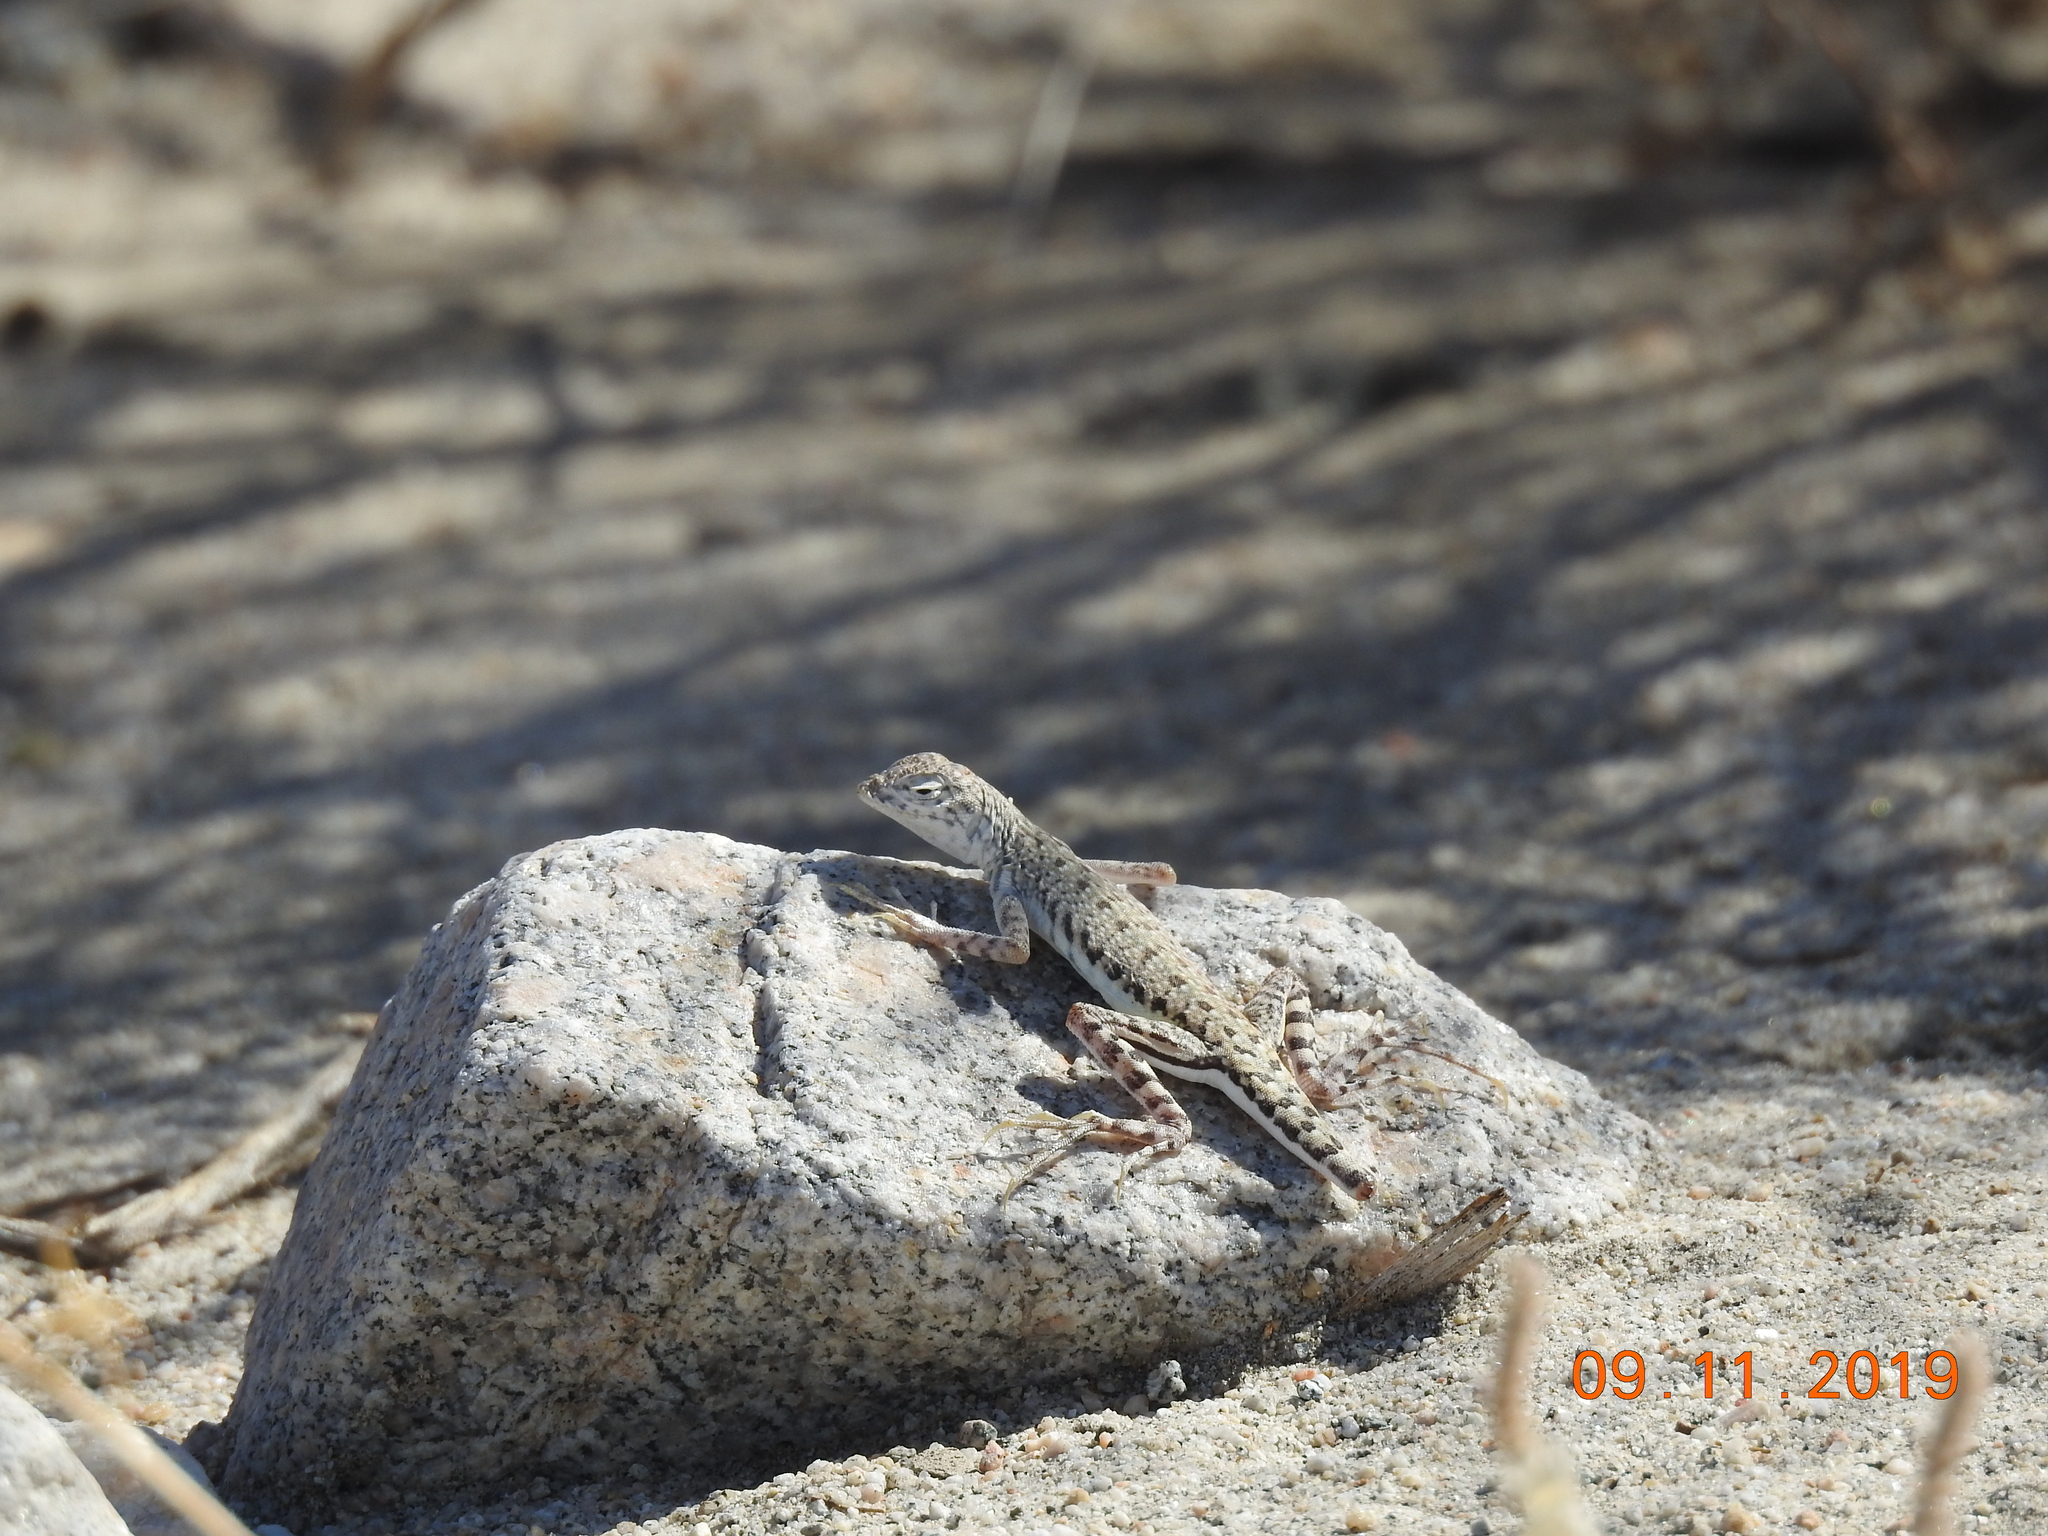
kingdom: Animalia
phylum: Chordata
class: Squamata
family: Phrynosomatidae
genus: Callisaurus
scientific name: Callisaurus draconoides
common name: Zebra-tailed lizard
